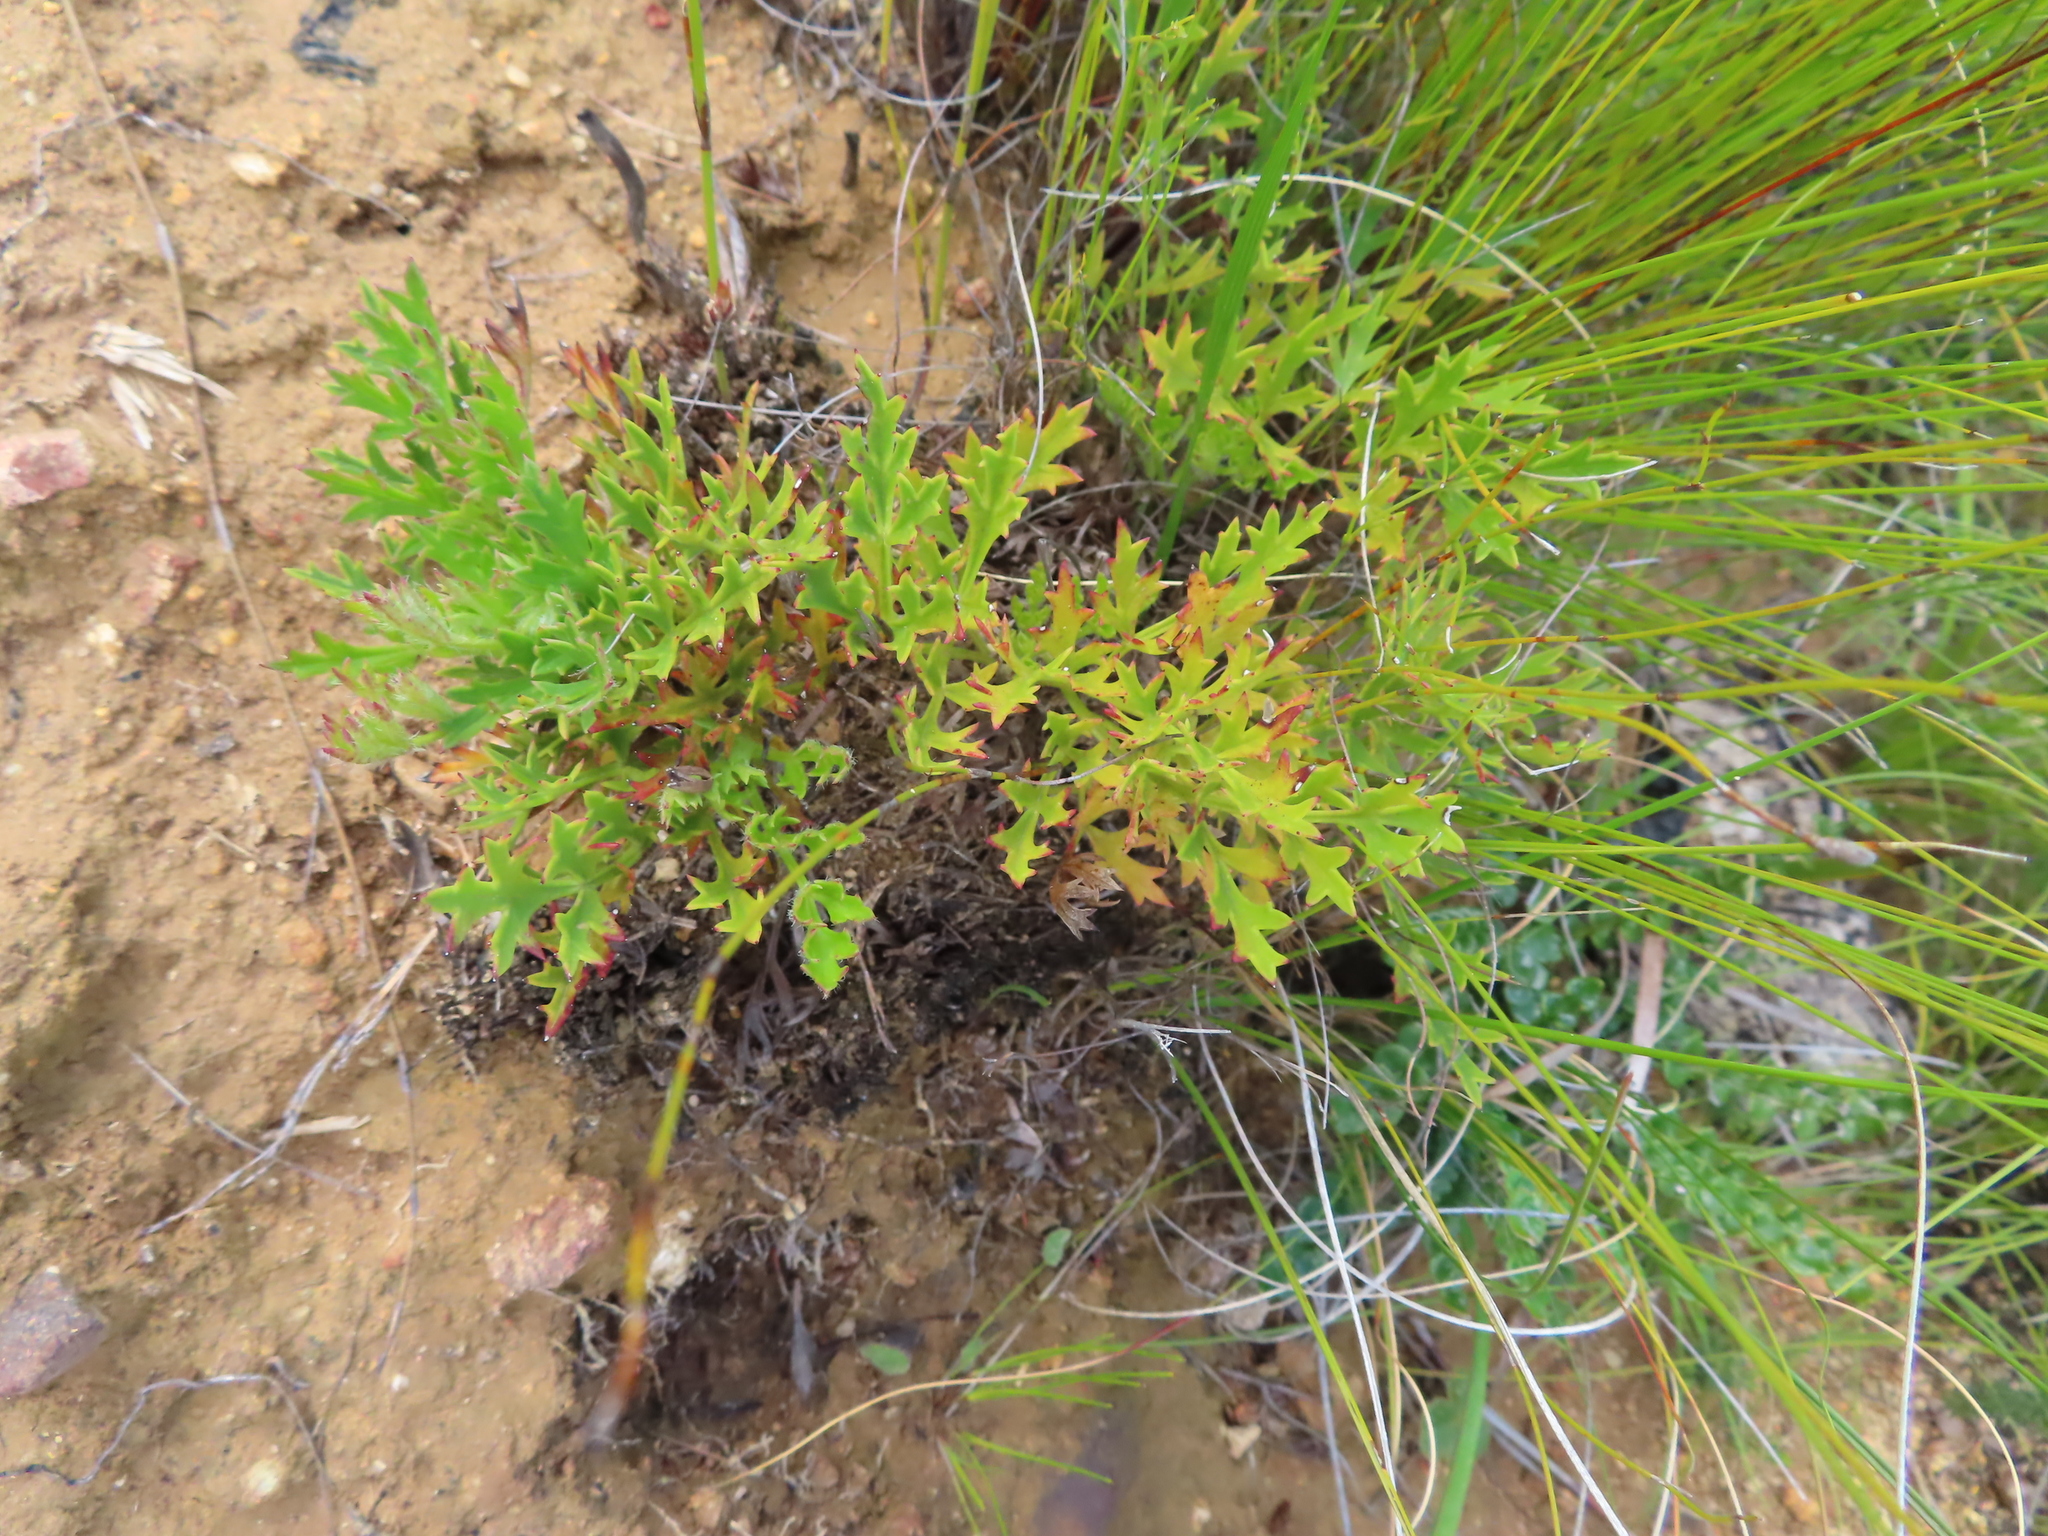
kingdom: Plantae
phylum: Tracheophyta
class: Magnoliopsida
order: Ranunculales
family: Ranunculaceae
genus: Knowltonia
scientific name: Knowltonia tenuifolia
